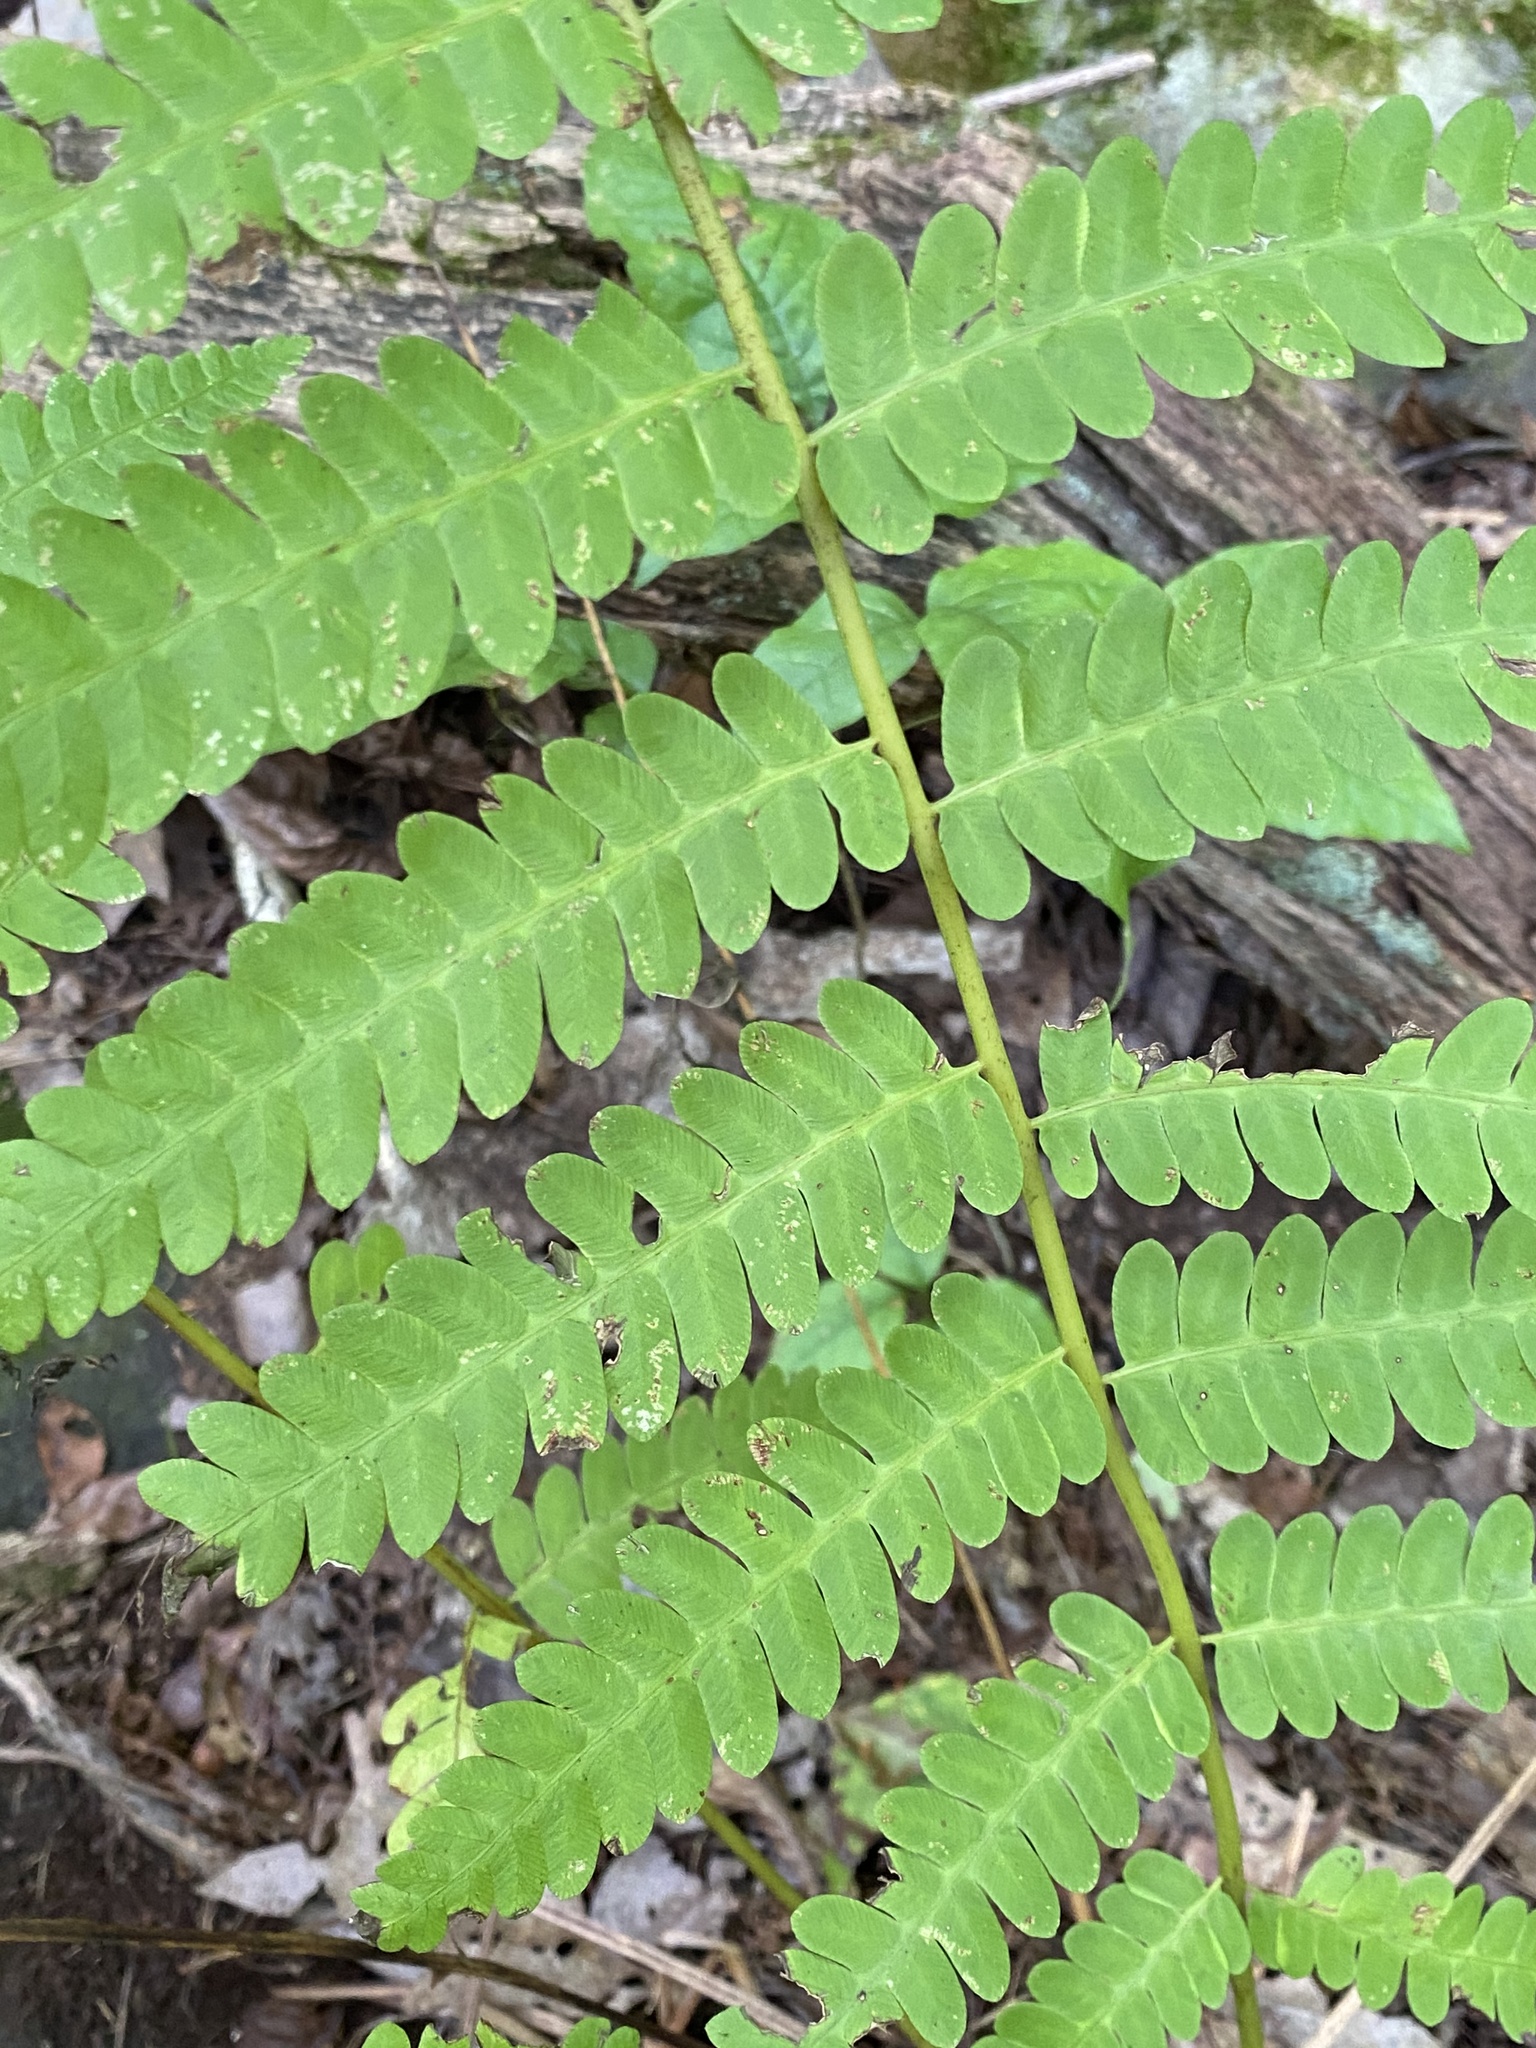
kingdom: Plantae
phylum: Tracheophyta
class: Polypodiopsida
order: Osmundales
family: Osmundaceae
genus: Claytosmunda
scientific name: Claytosmunda claytoniana
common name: Clayton's fern
